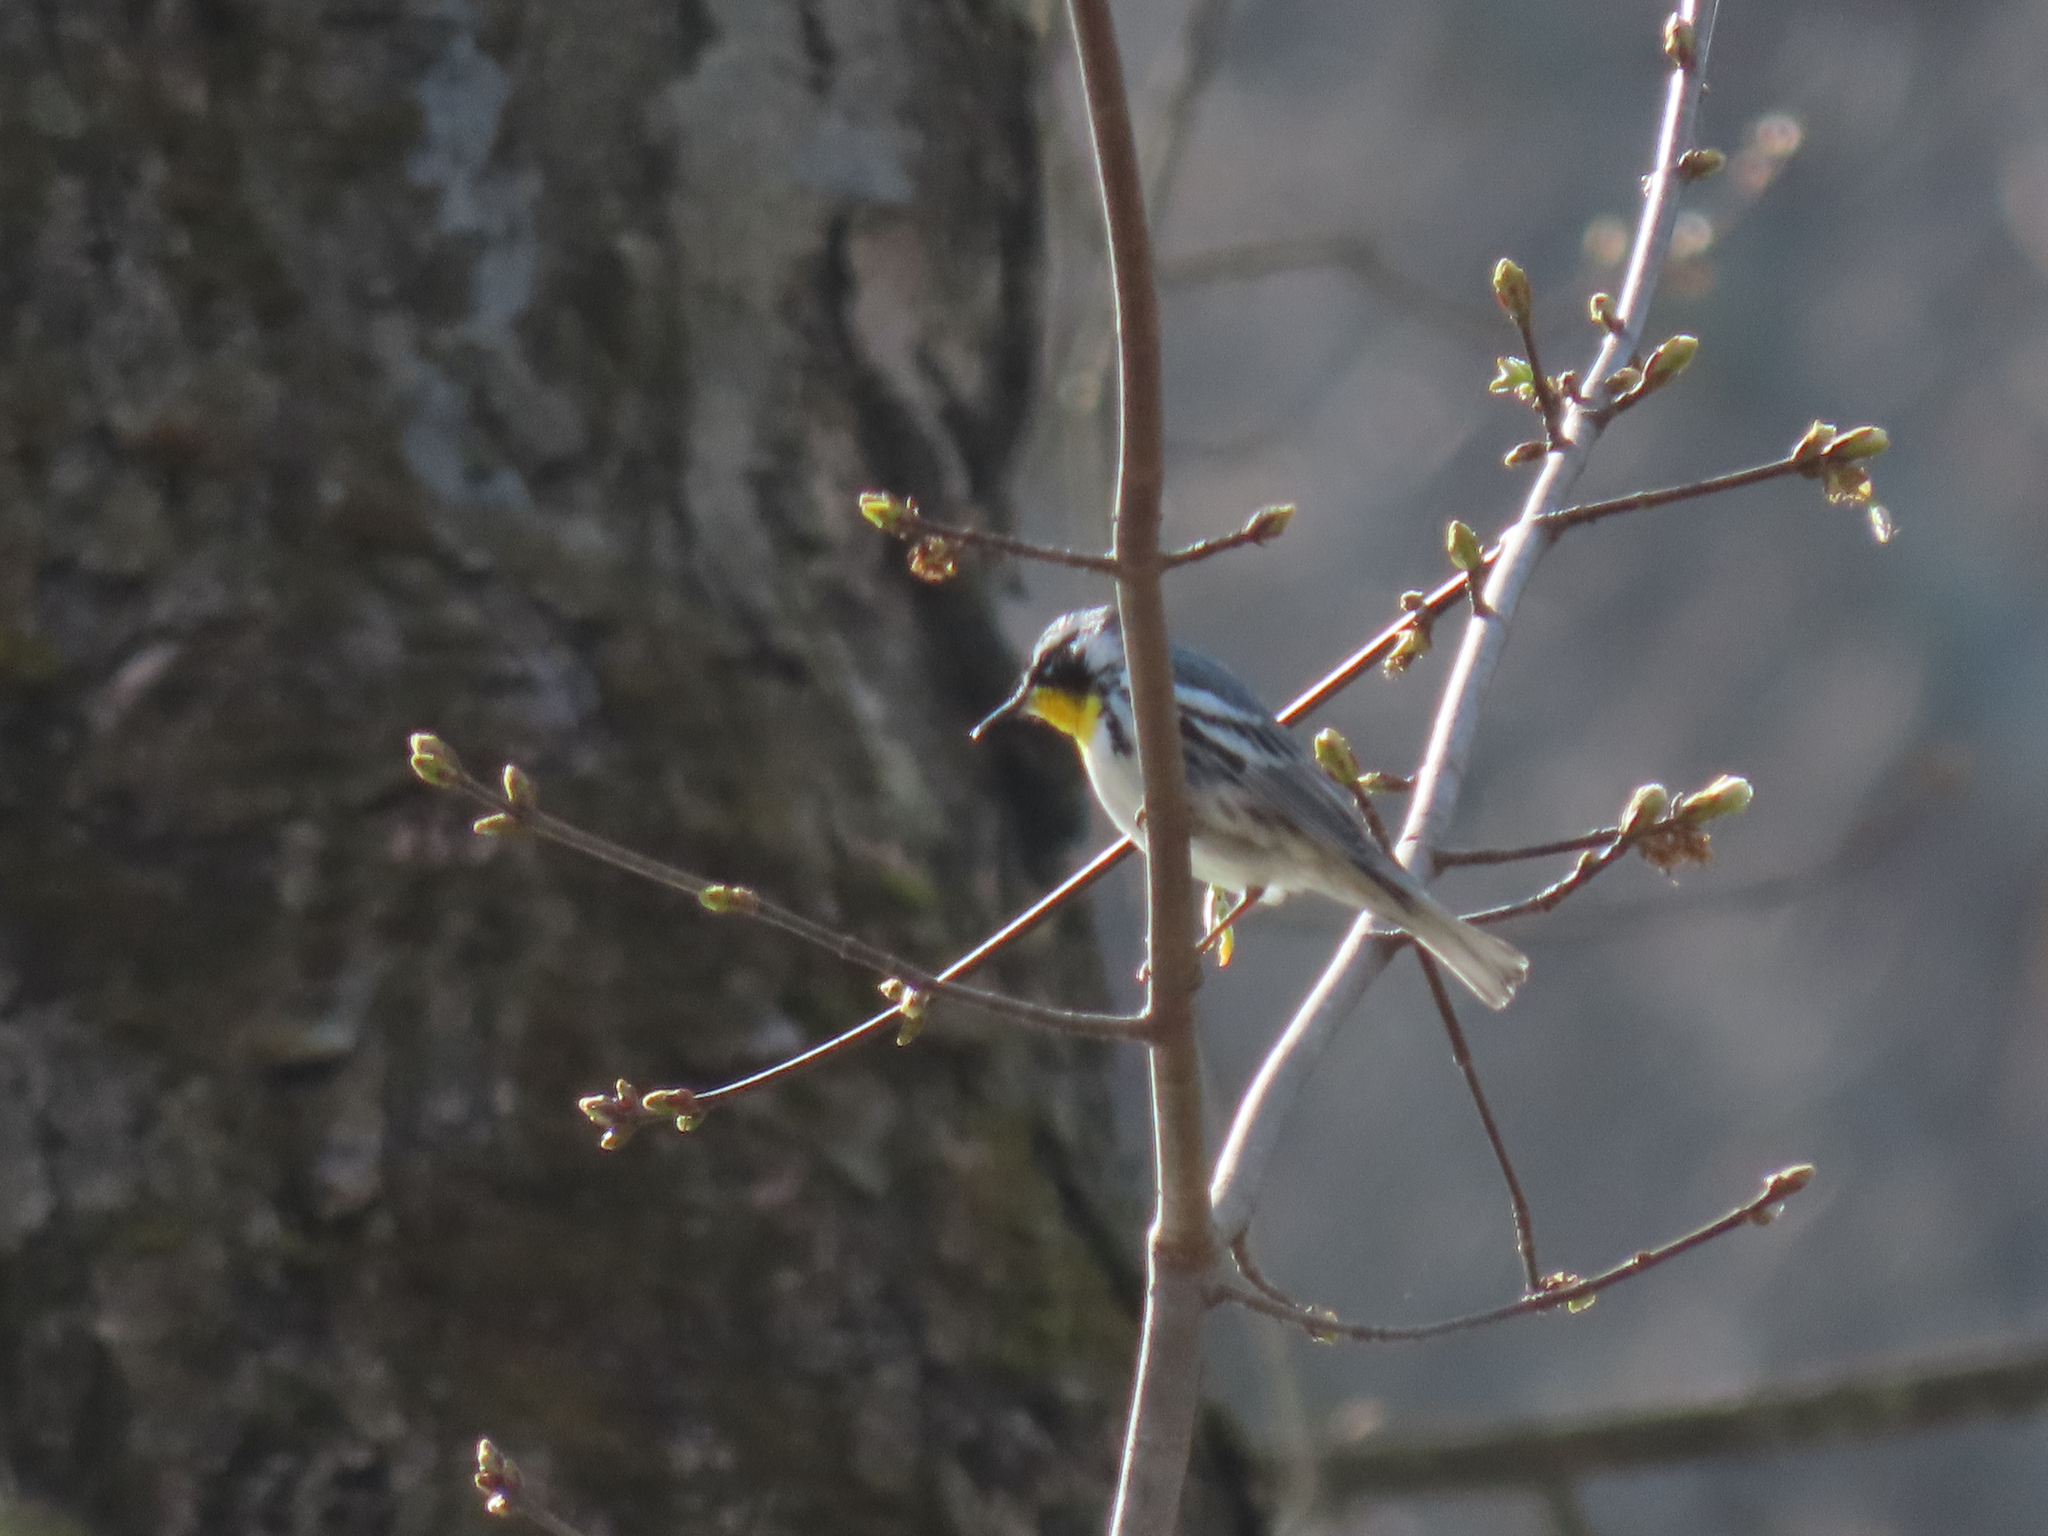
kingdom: Animalia
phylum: Chordata
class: Aves
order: Passeriformes
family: Parulidae
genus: Setophaga
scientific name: Setophaga dominica
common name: Yellow-throated warbler
